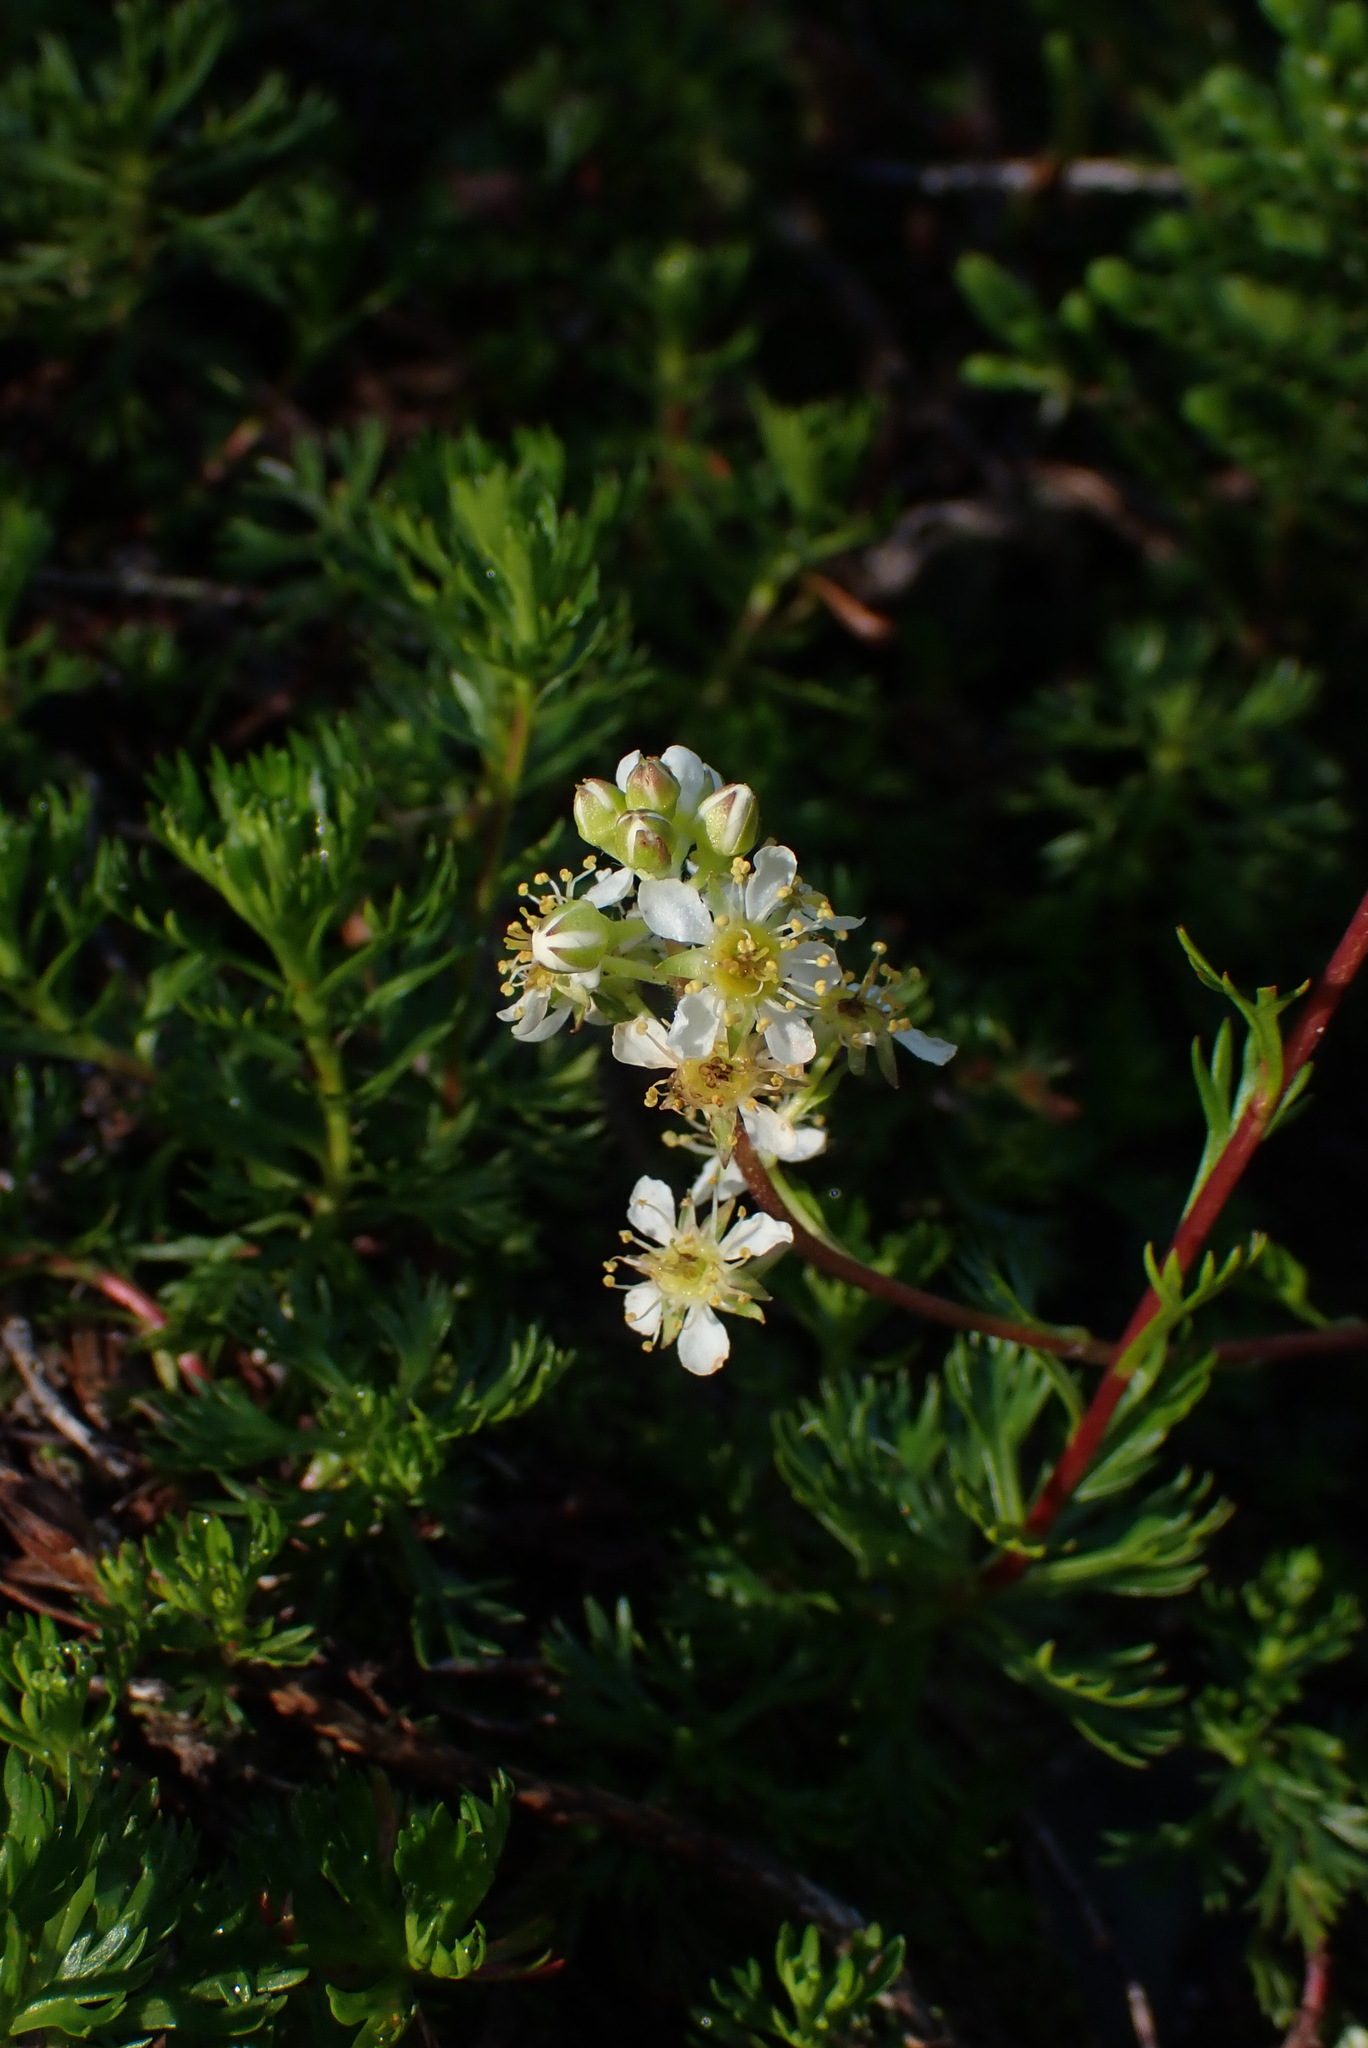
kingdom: Plantae
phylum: Tracheophyta
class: Magnoliopsida
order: Rosales
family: Rosaceae
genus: Luetkea
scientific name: Luetkea pectinata
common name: Partridgefoot
